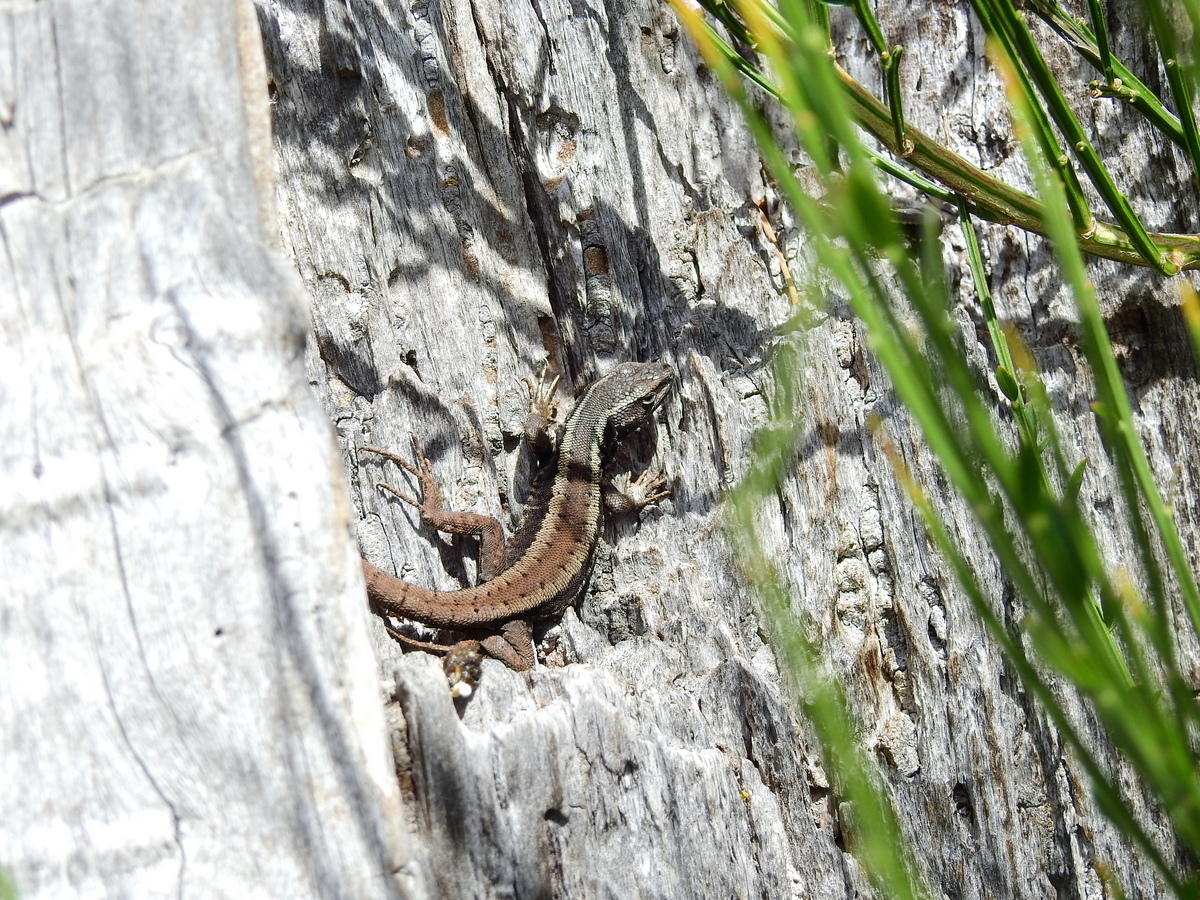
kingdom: Animalia
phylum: Chordata
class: Squamata
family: Liolaemidae
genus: Liolaemus
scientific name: Liolaemus pictus
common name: Painted tree iguana
